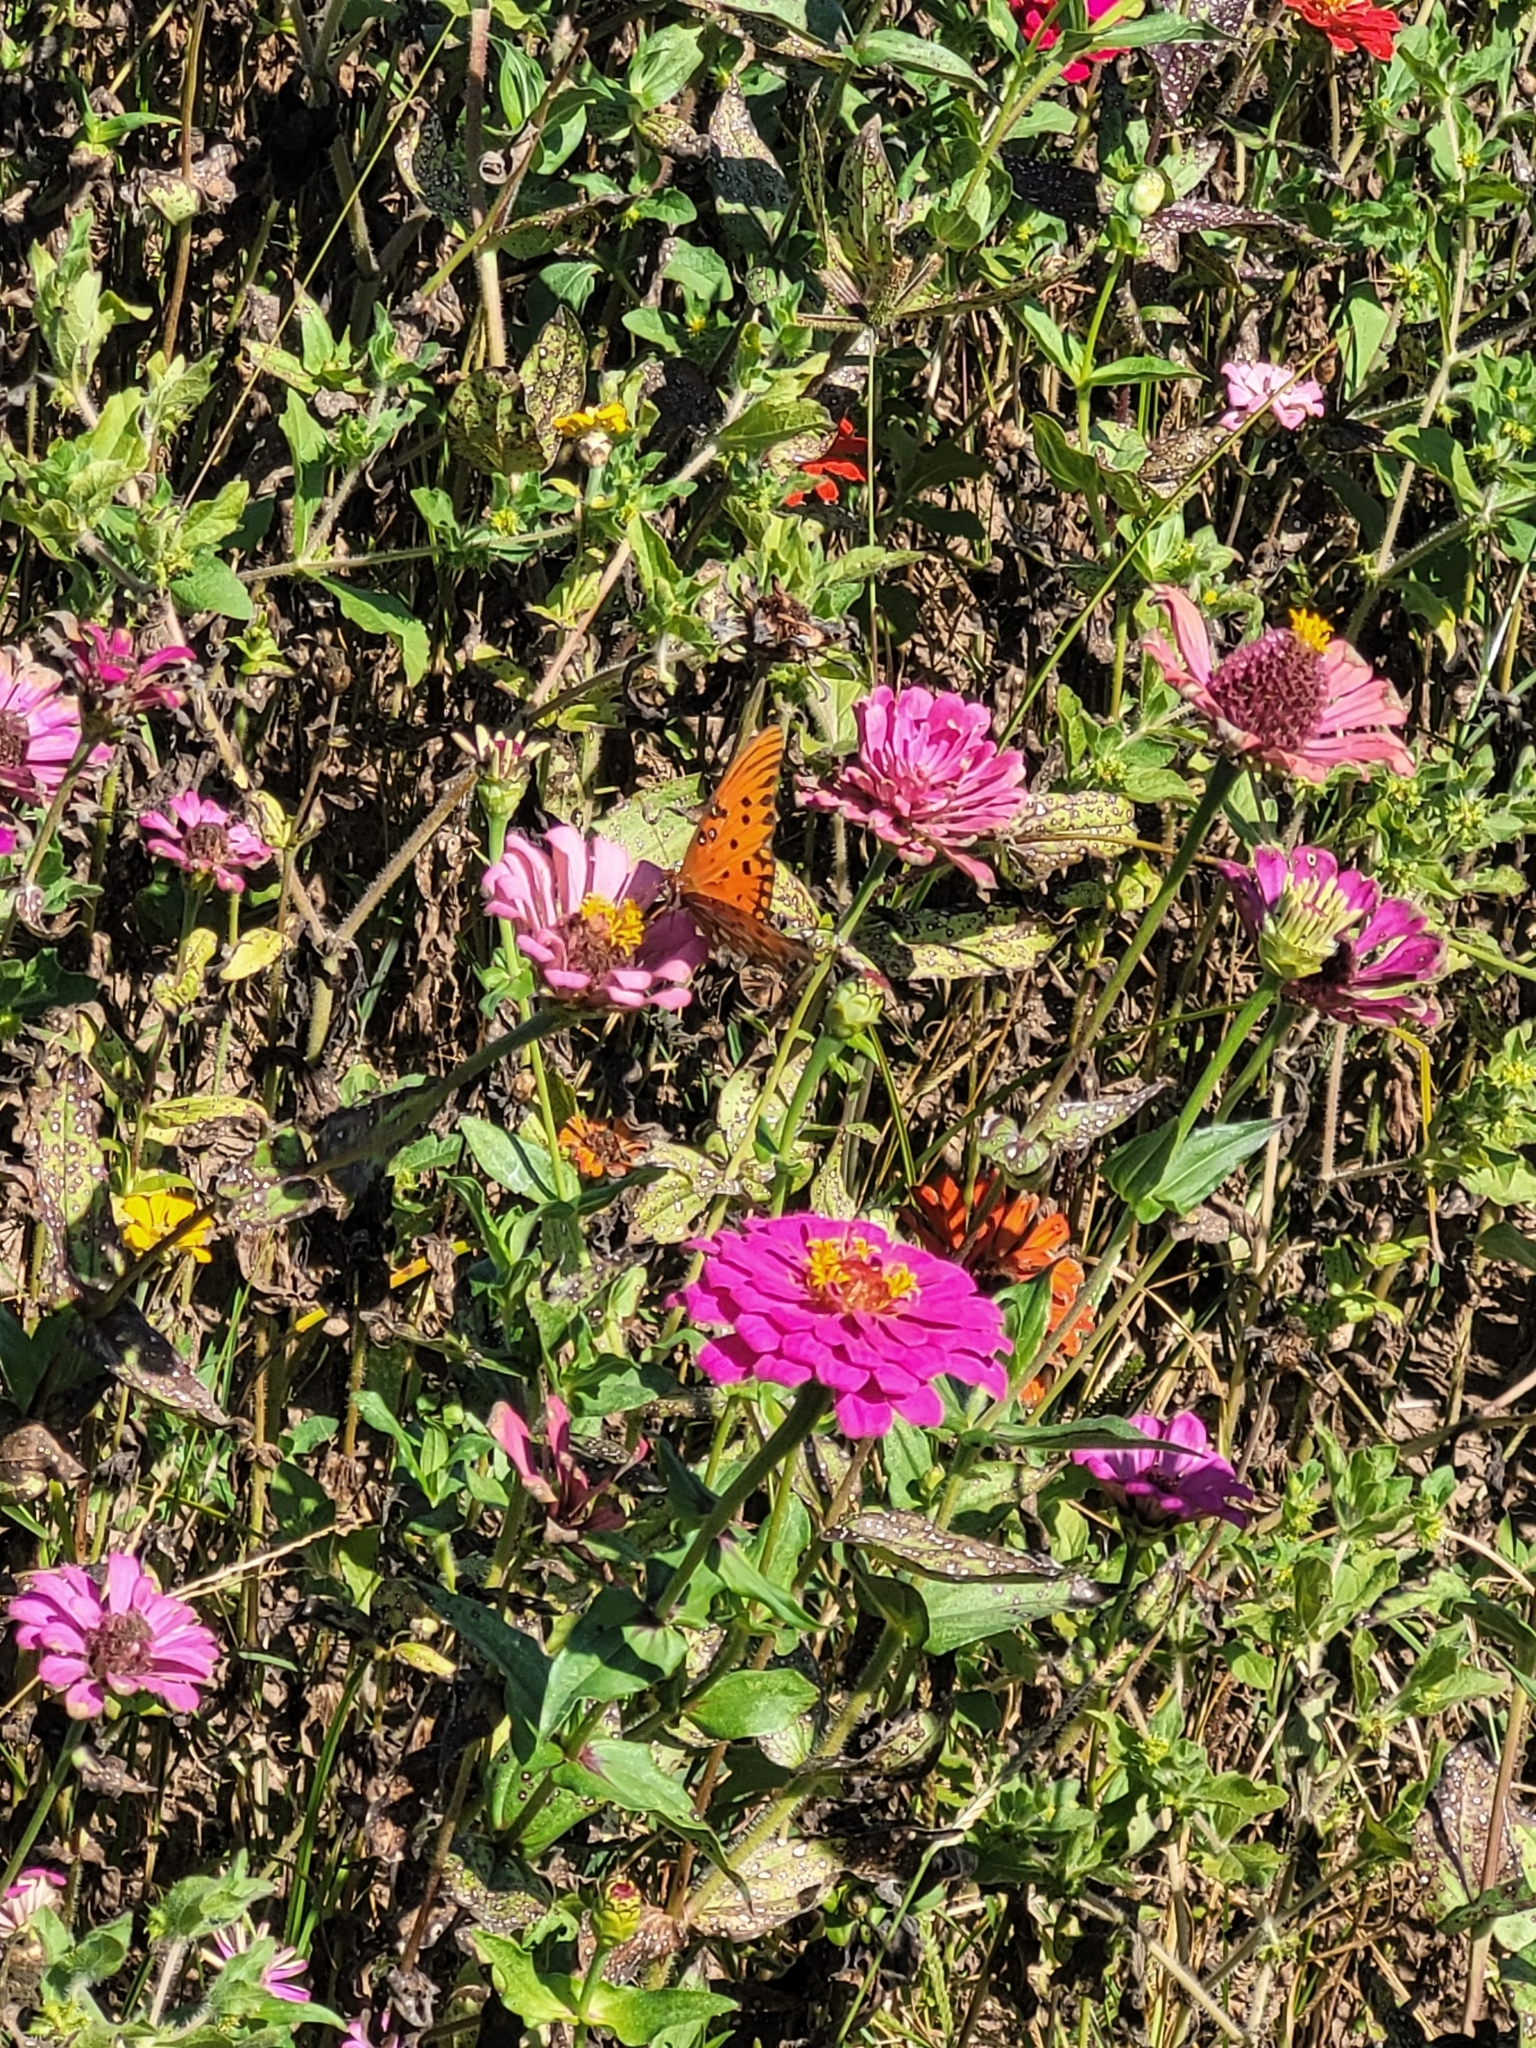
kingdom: Animalia
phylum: Arthropoda
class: Insecta
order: Lepidoptera
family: Nymphalidae
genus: Dione
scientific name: Dione vanillae
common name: Gulf fritillary
